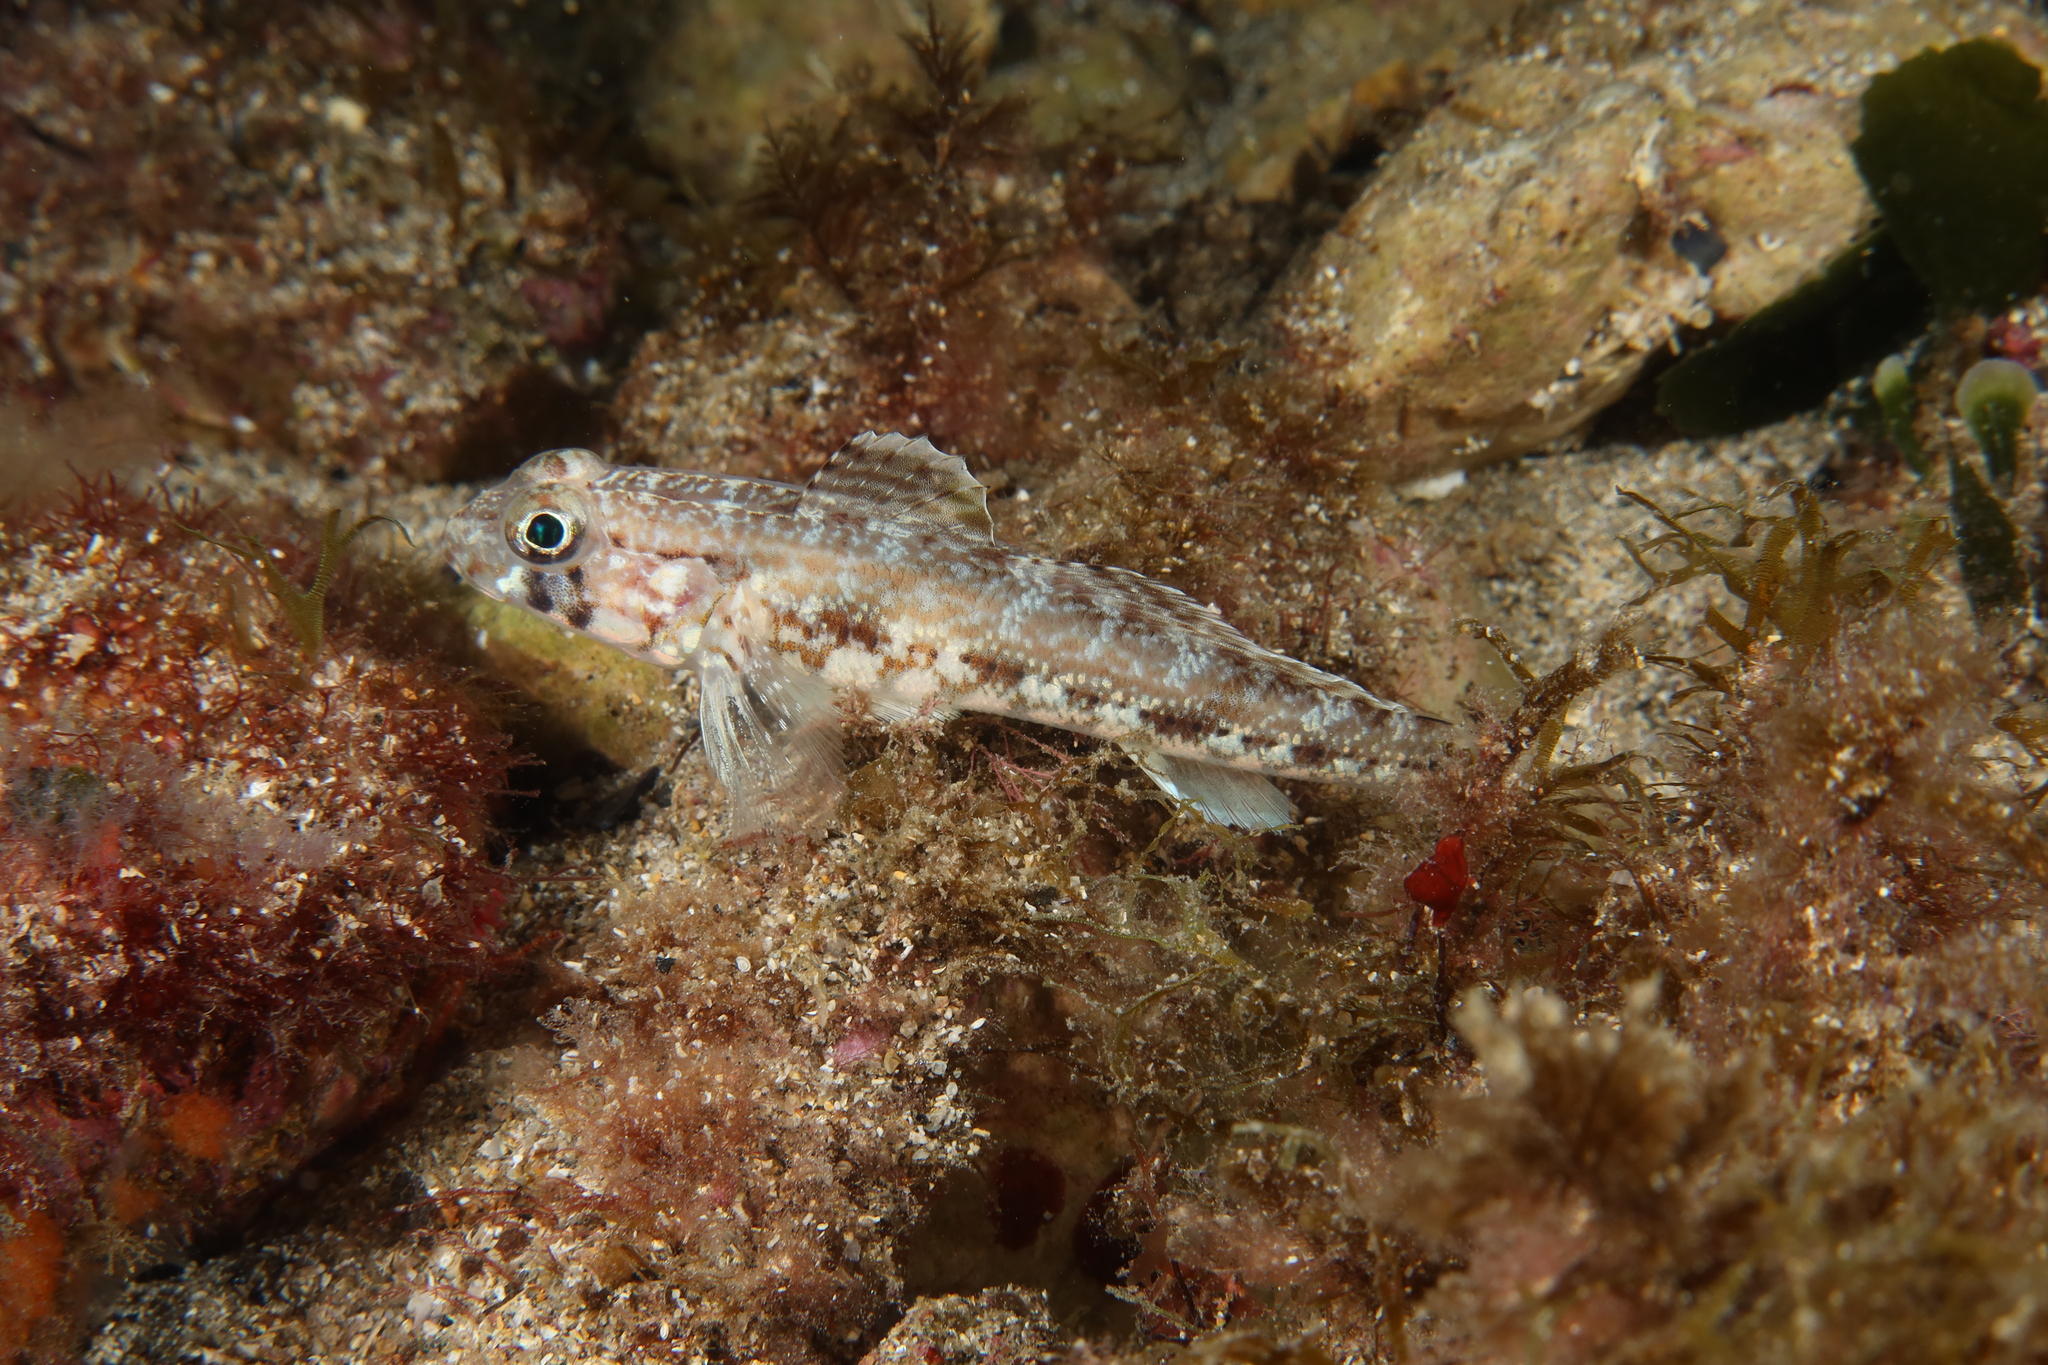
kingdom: Animalia
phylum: Chordata
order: Perciformes
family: Gobiidae
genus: Gobius
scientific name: Gobius geniporus
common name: Slender goby
